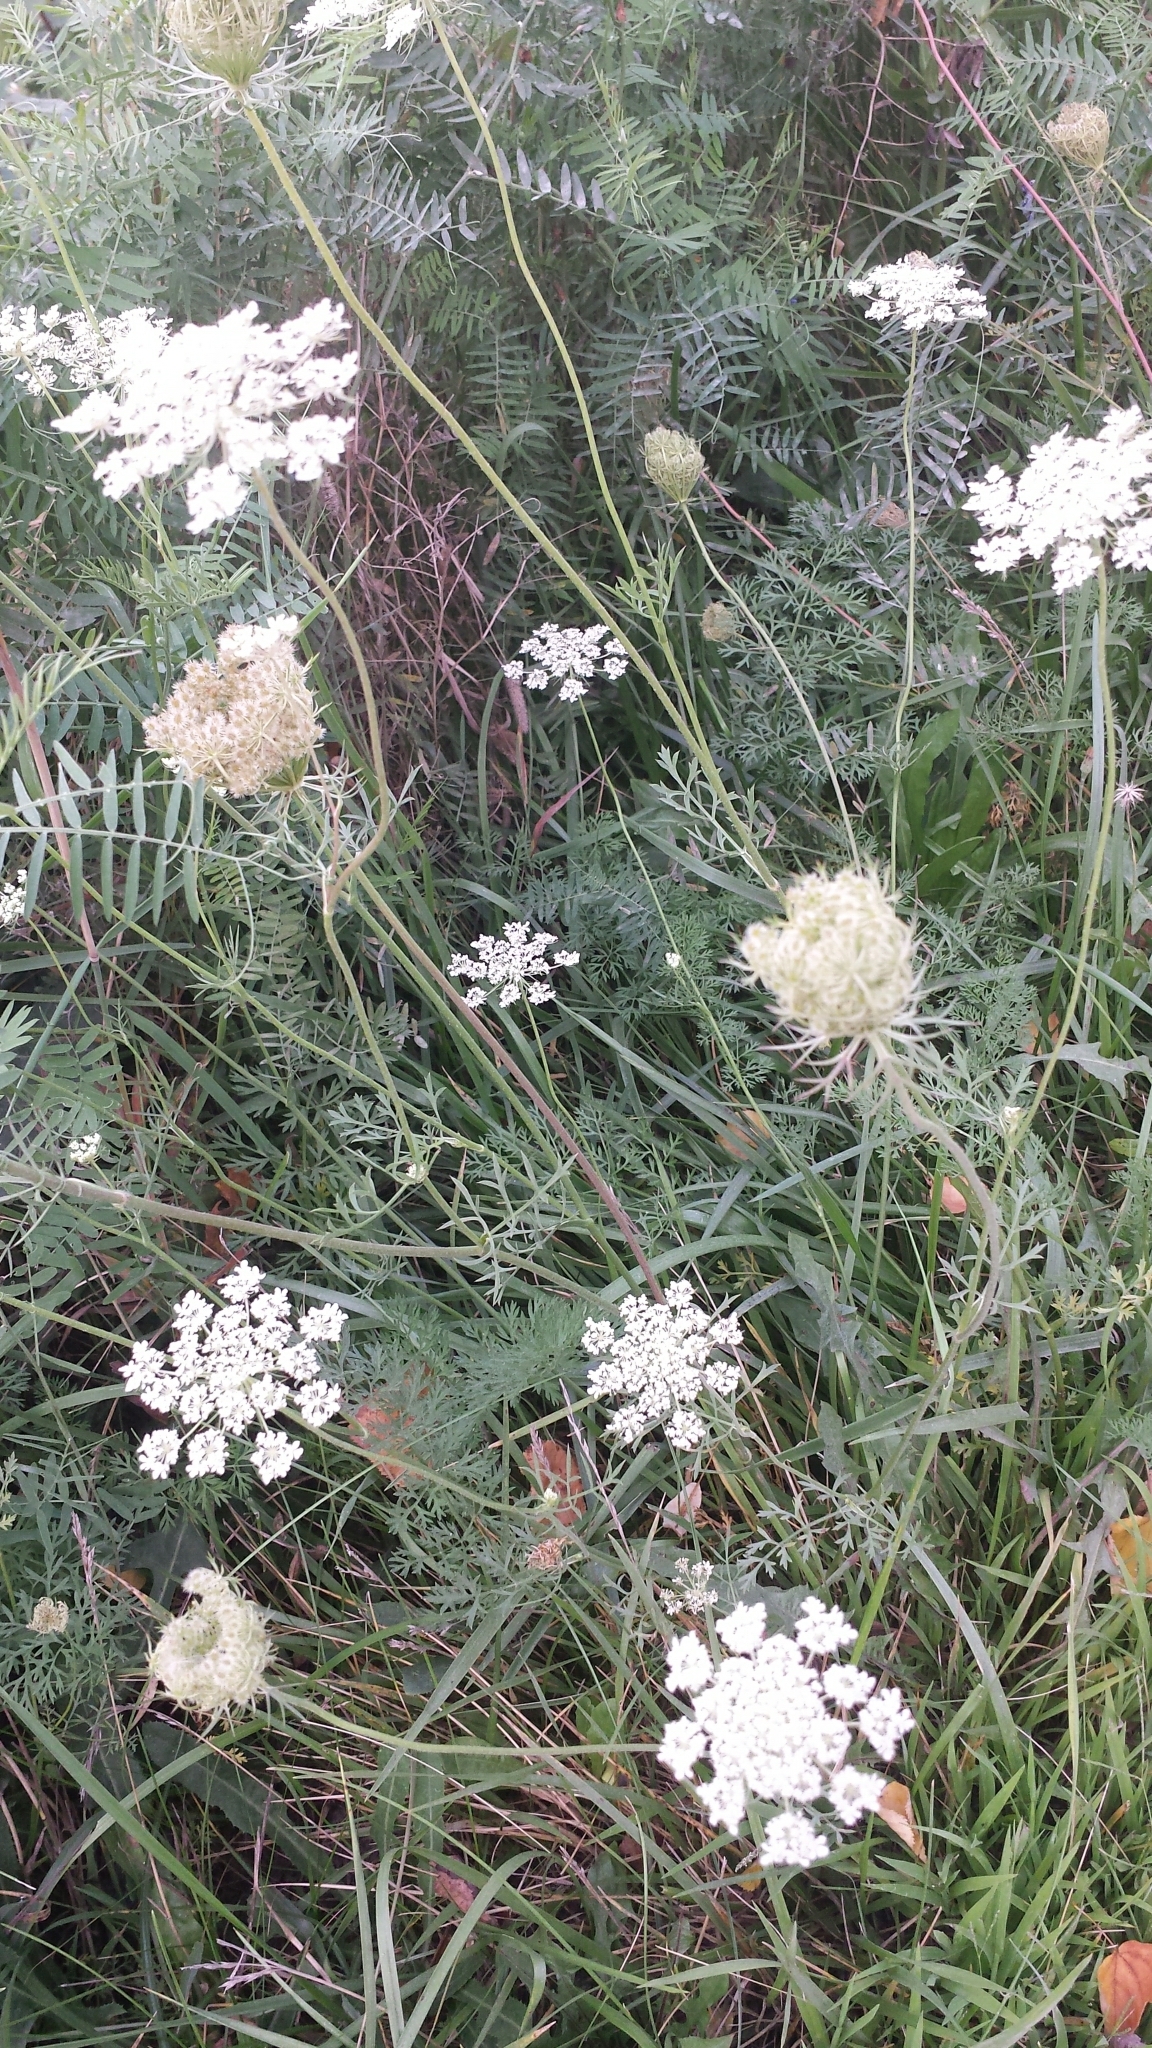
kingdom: Plantae
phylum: Tracheophyta
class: Magnoliopsida
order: Apiales
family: Apiaceae
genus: Daucus
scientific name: Daucus carota
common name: Wild carrot
